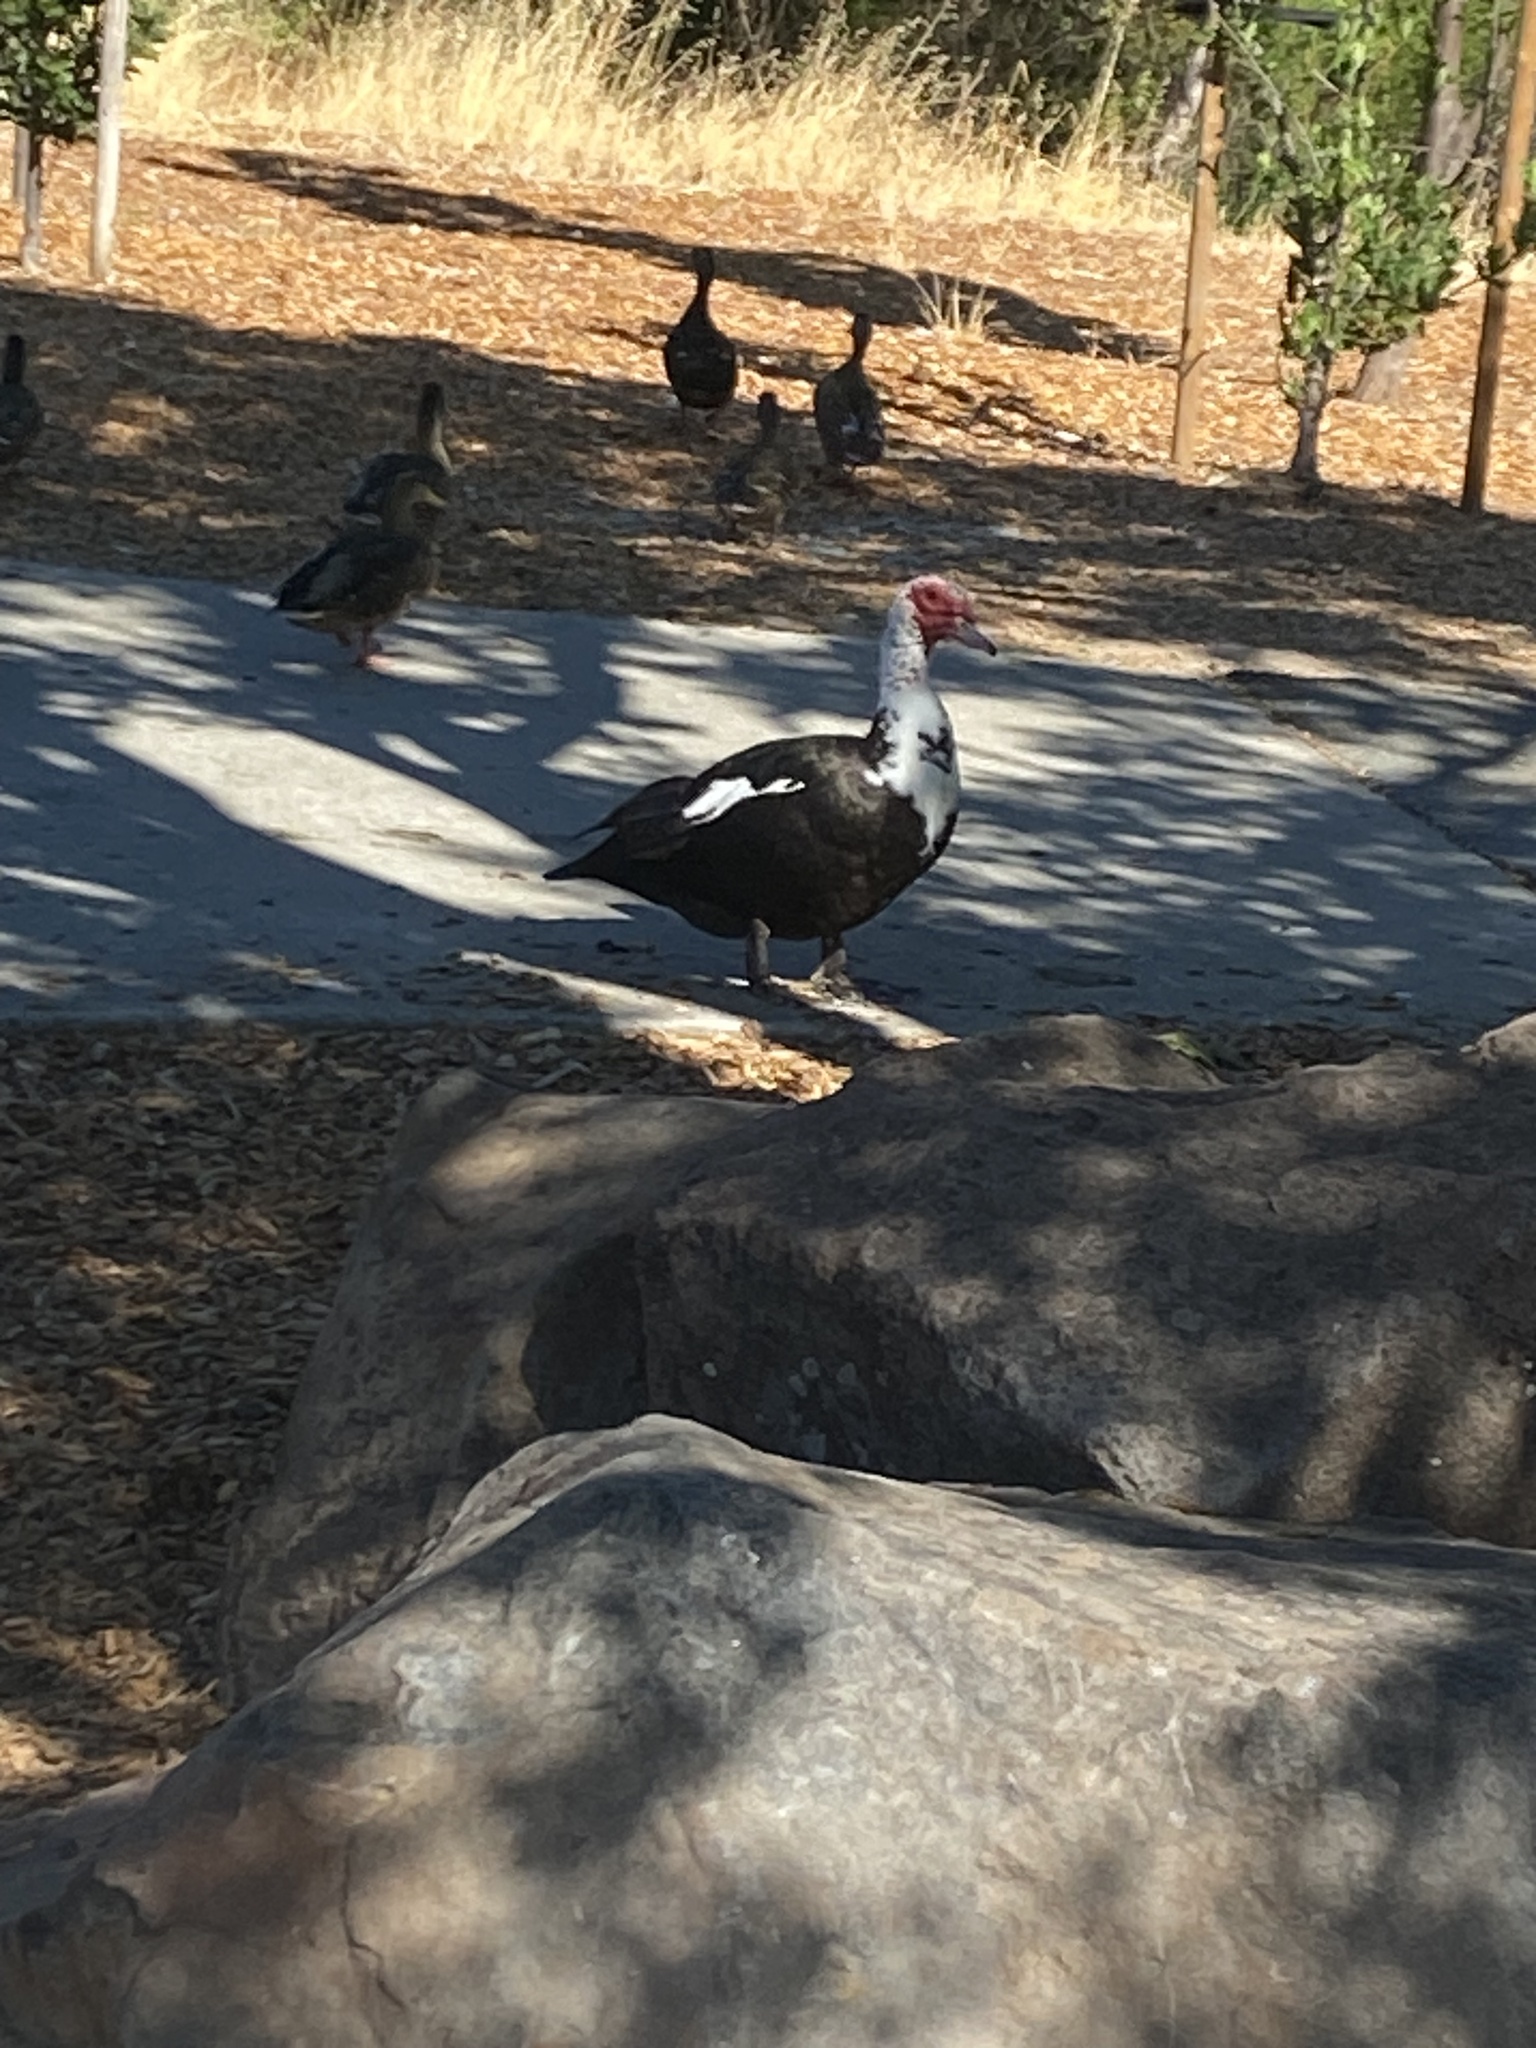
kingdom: Animalia
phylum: Chordata
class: Aves
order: Anseriformes
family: Anatidae
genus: Cairina
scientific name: Cairina moschata
